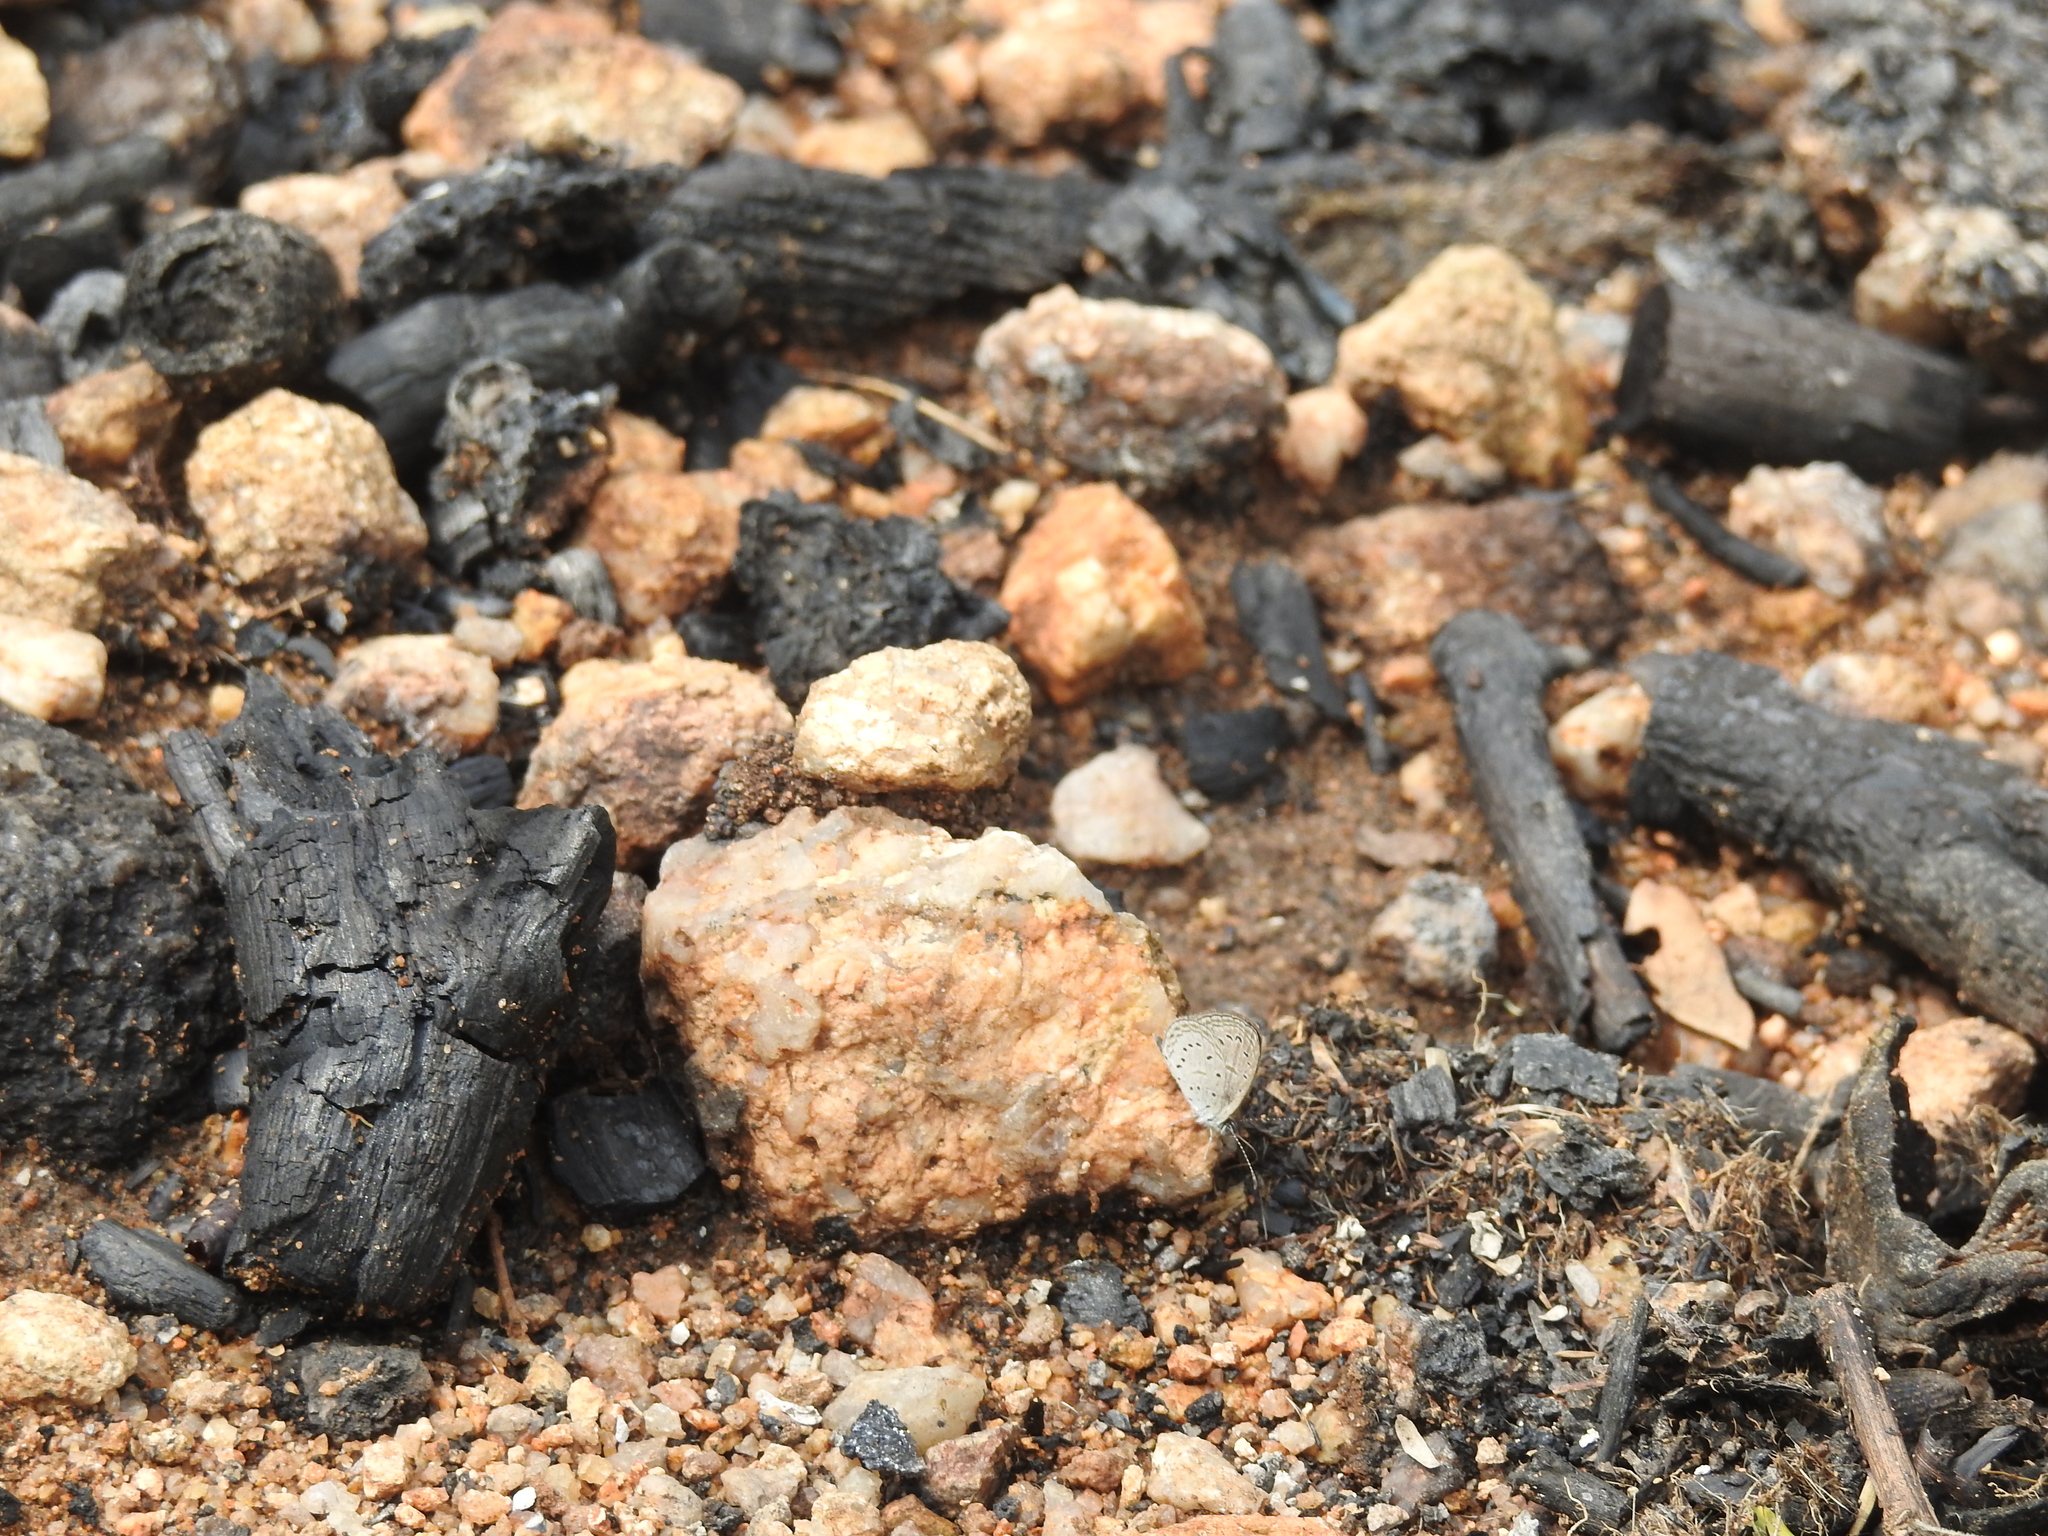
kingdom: Animalia
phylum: Arthropoda
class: Insecta
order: Lepidoptera
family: Lycaenidae
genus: Zizula
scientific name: Zizula hylax
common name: Gaika blue
